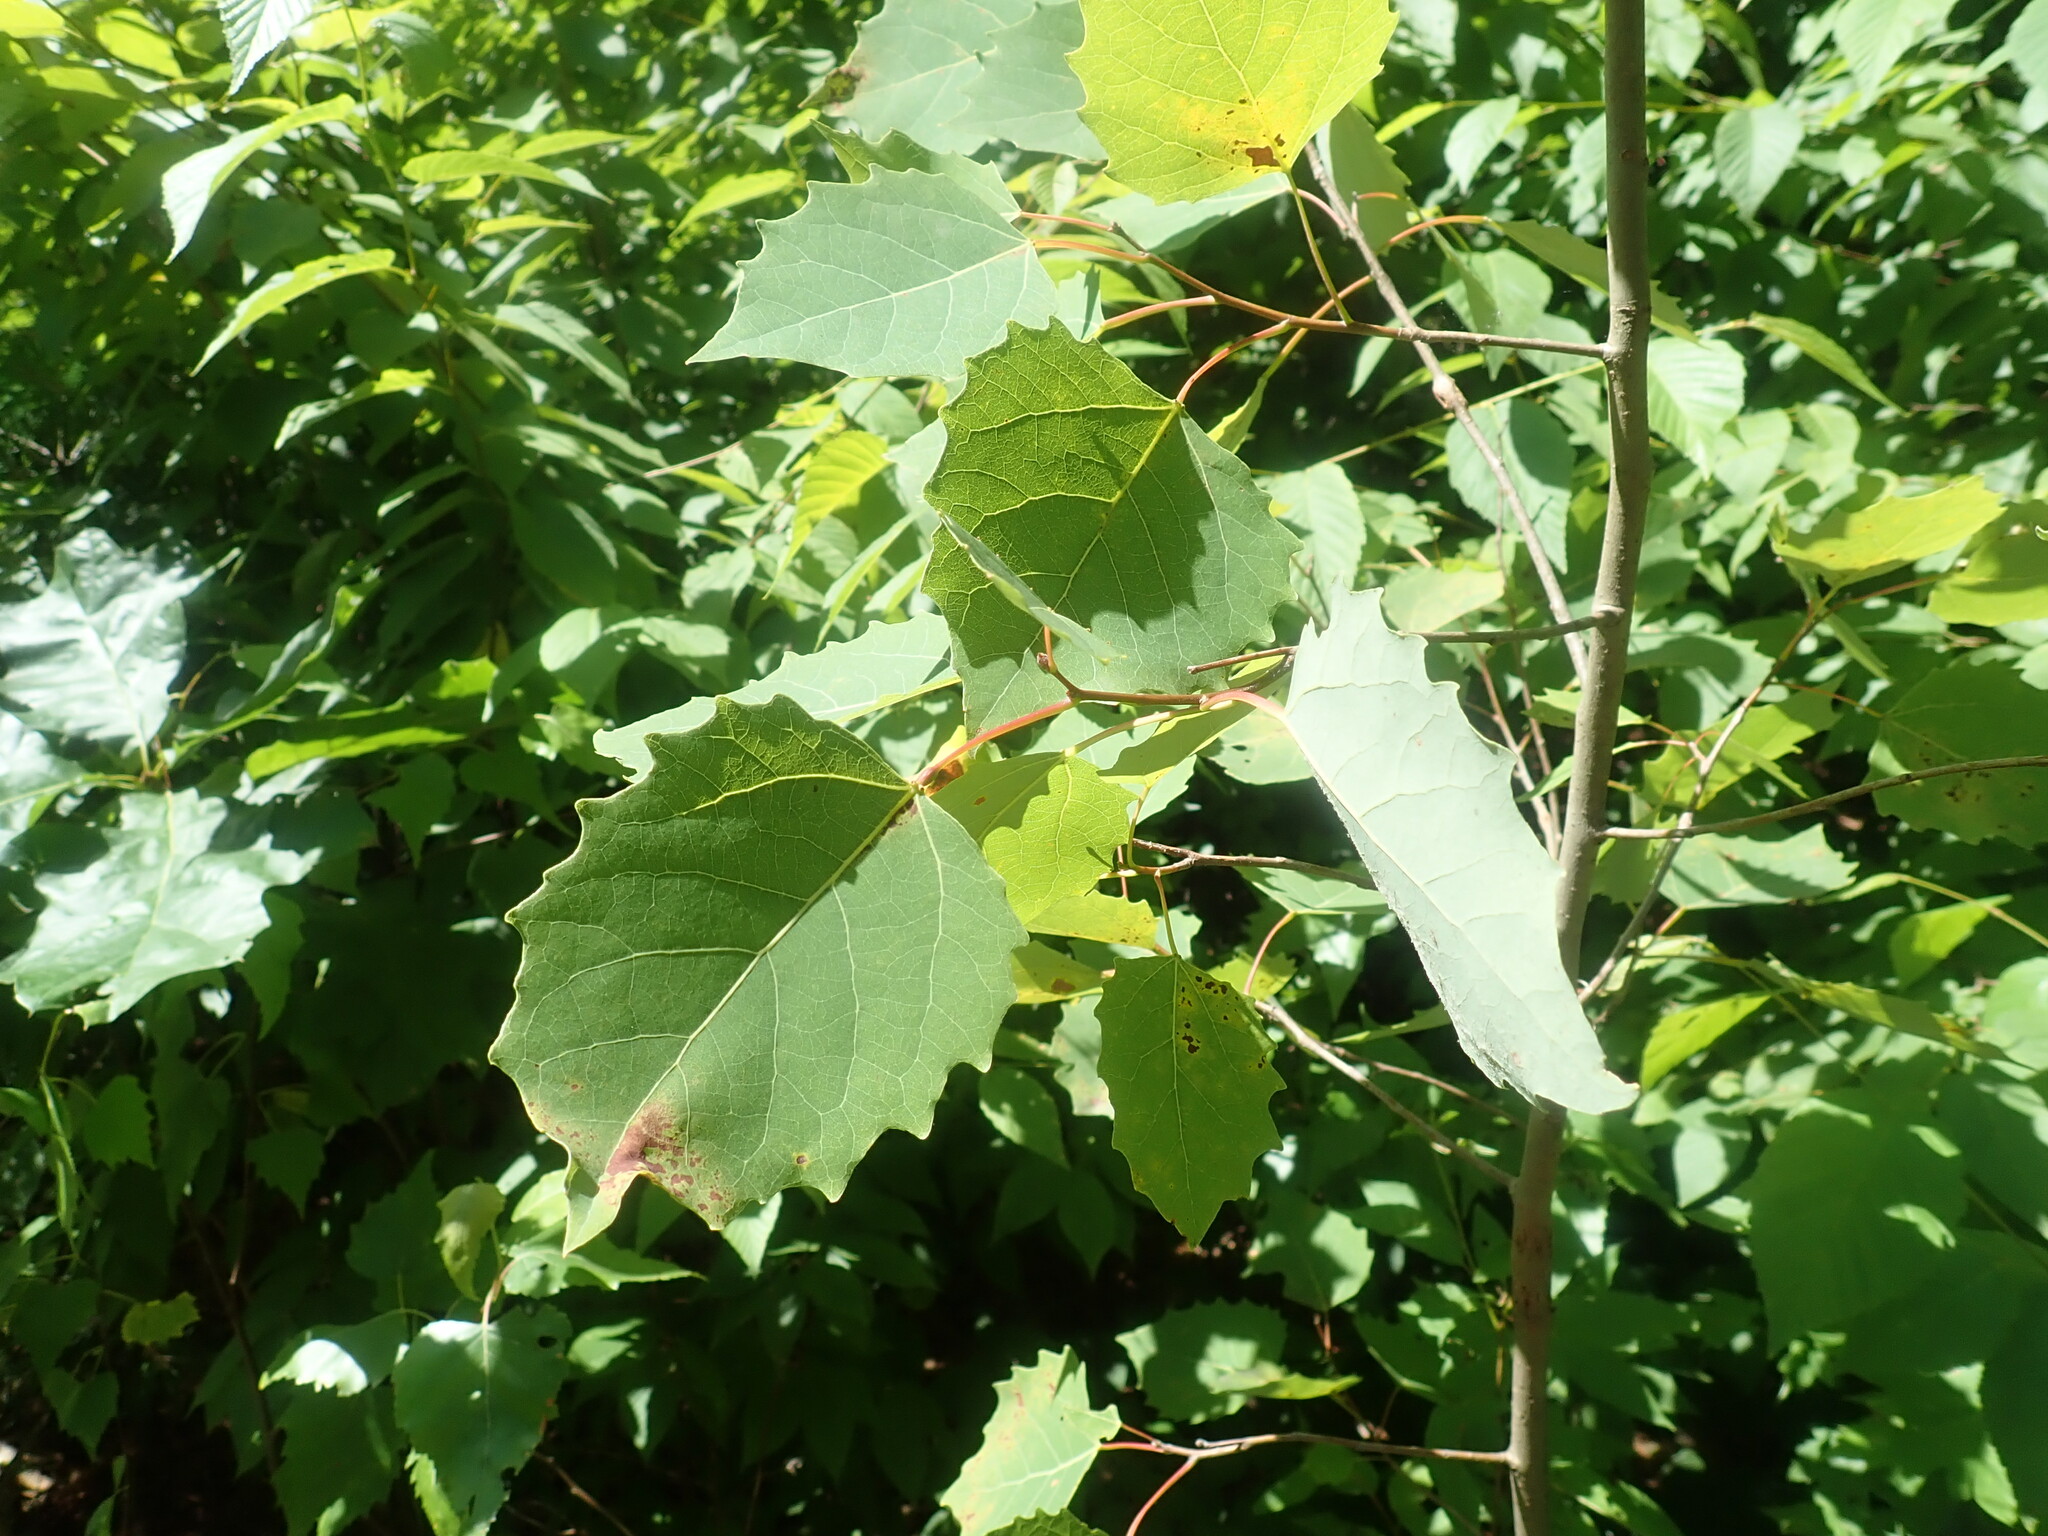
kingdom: Plantae
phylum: Tracheophyta
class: Magnoliopsida
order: Malpighiales
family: Salicaceae
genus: Populus
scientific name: Populus grandidentata
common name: Bigtooth aspen
